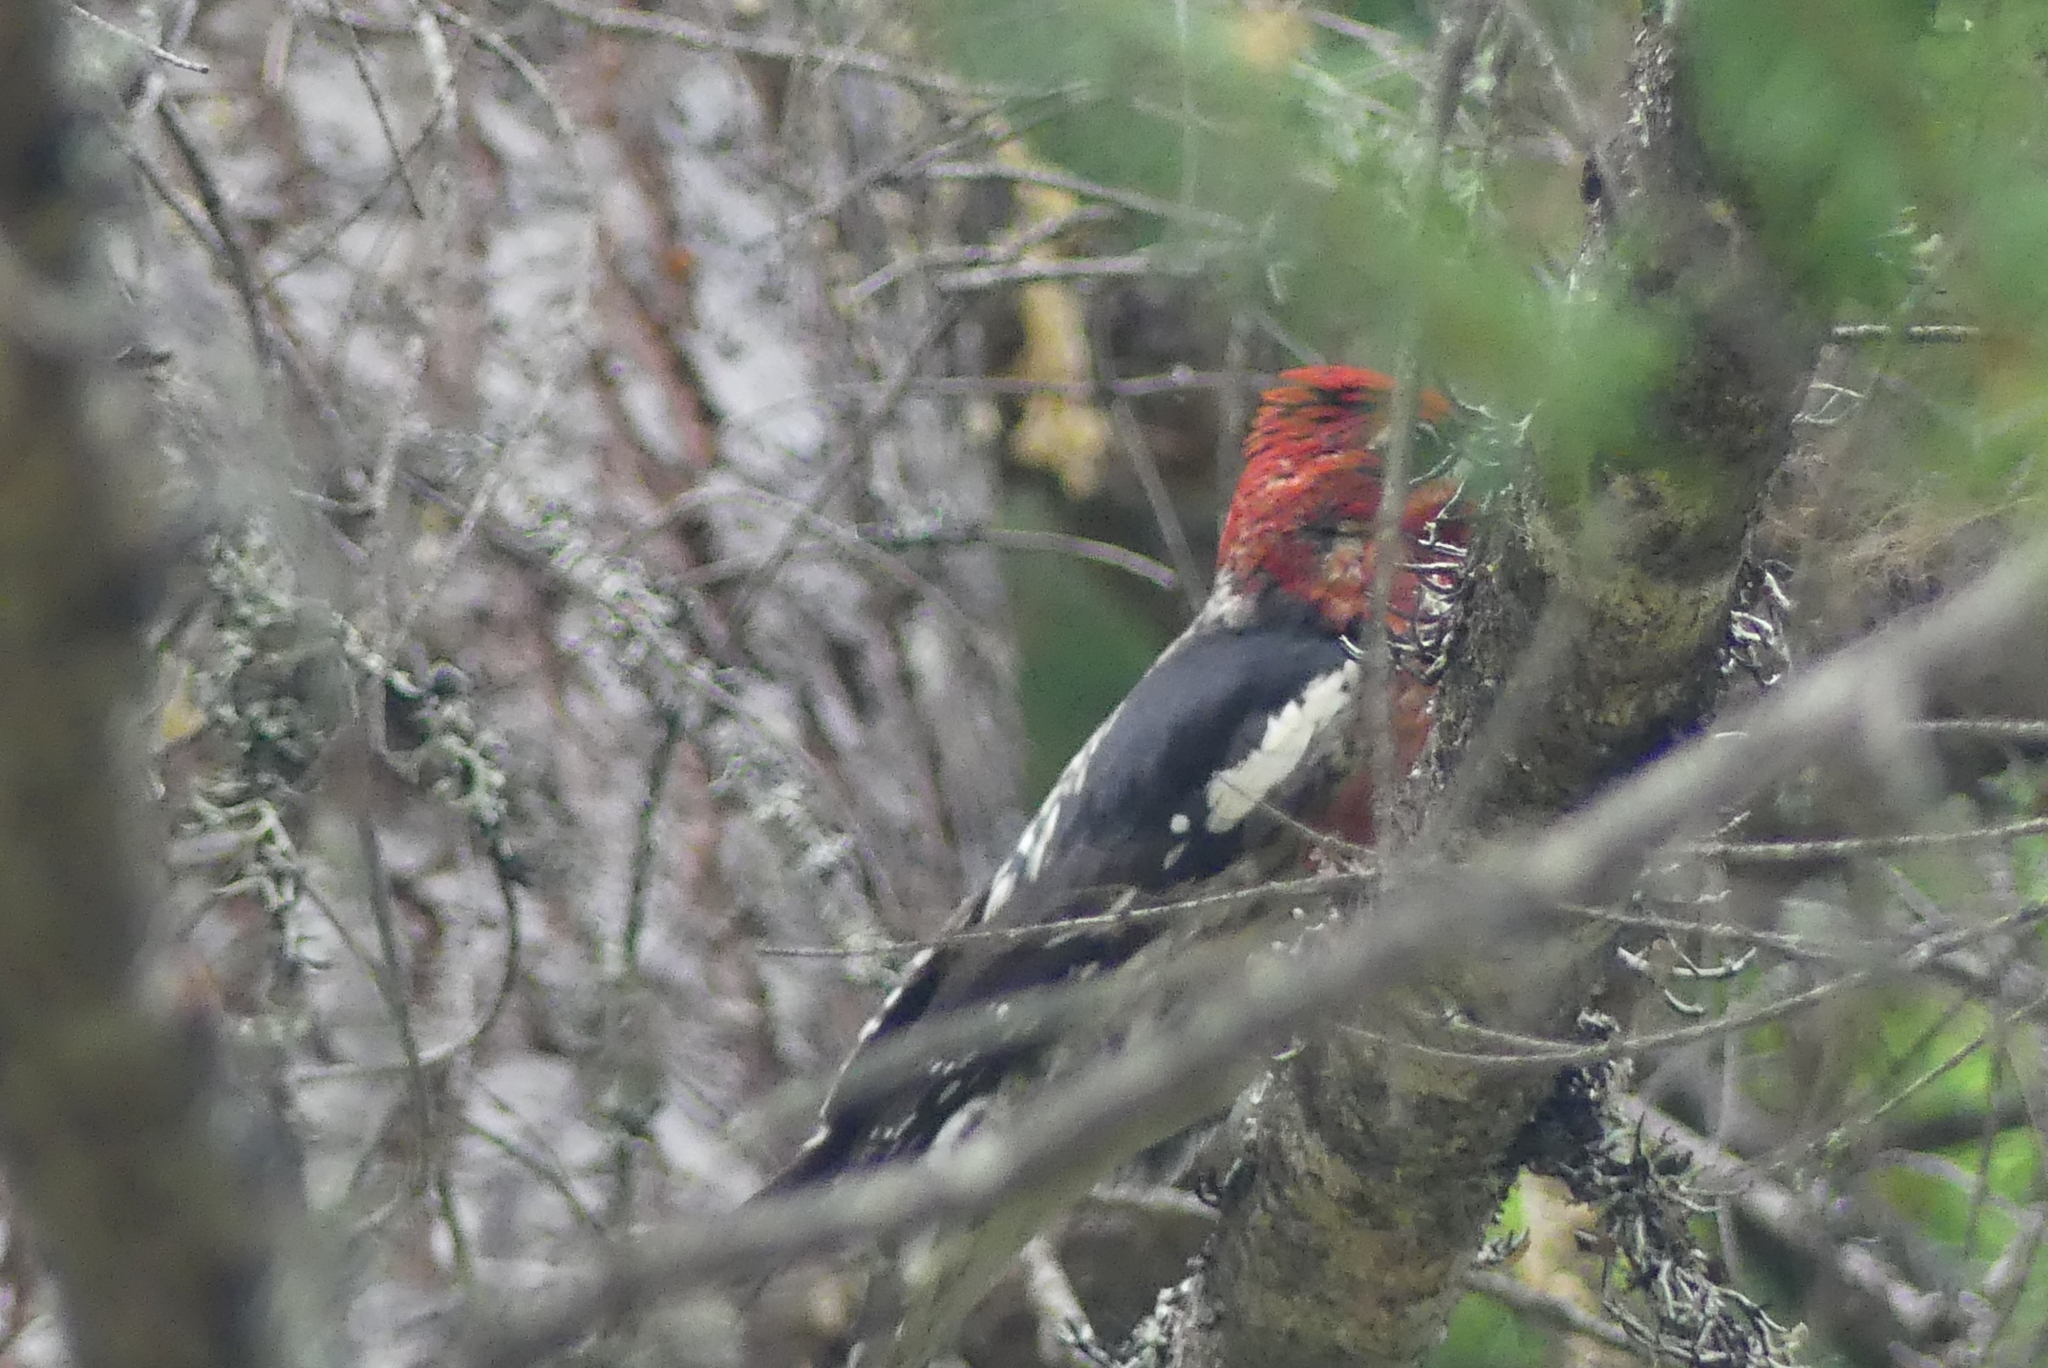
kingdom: Animalia
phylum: Chordata
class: Aves
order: Piciformes
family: Picidae
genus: Sphyrapicus
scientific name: Sphyrapicus ruber
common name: Red-breasted sapsucker
